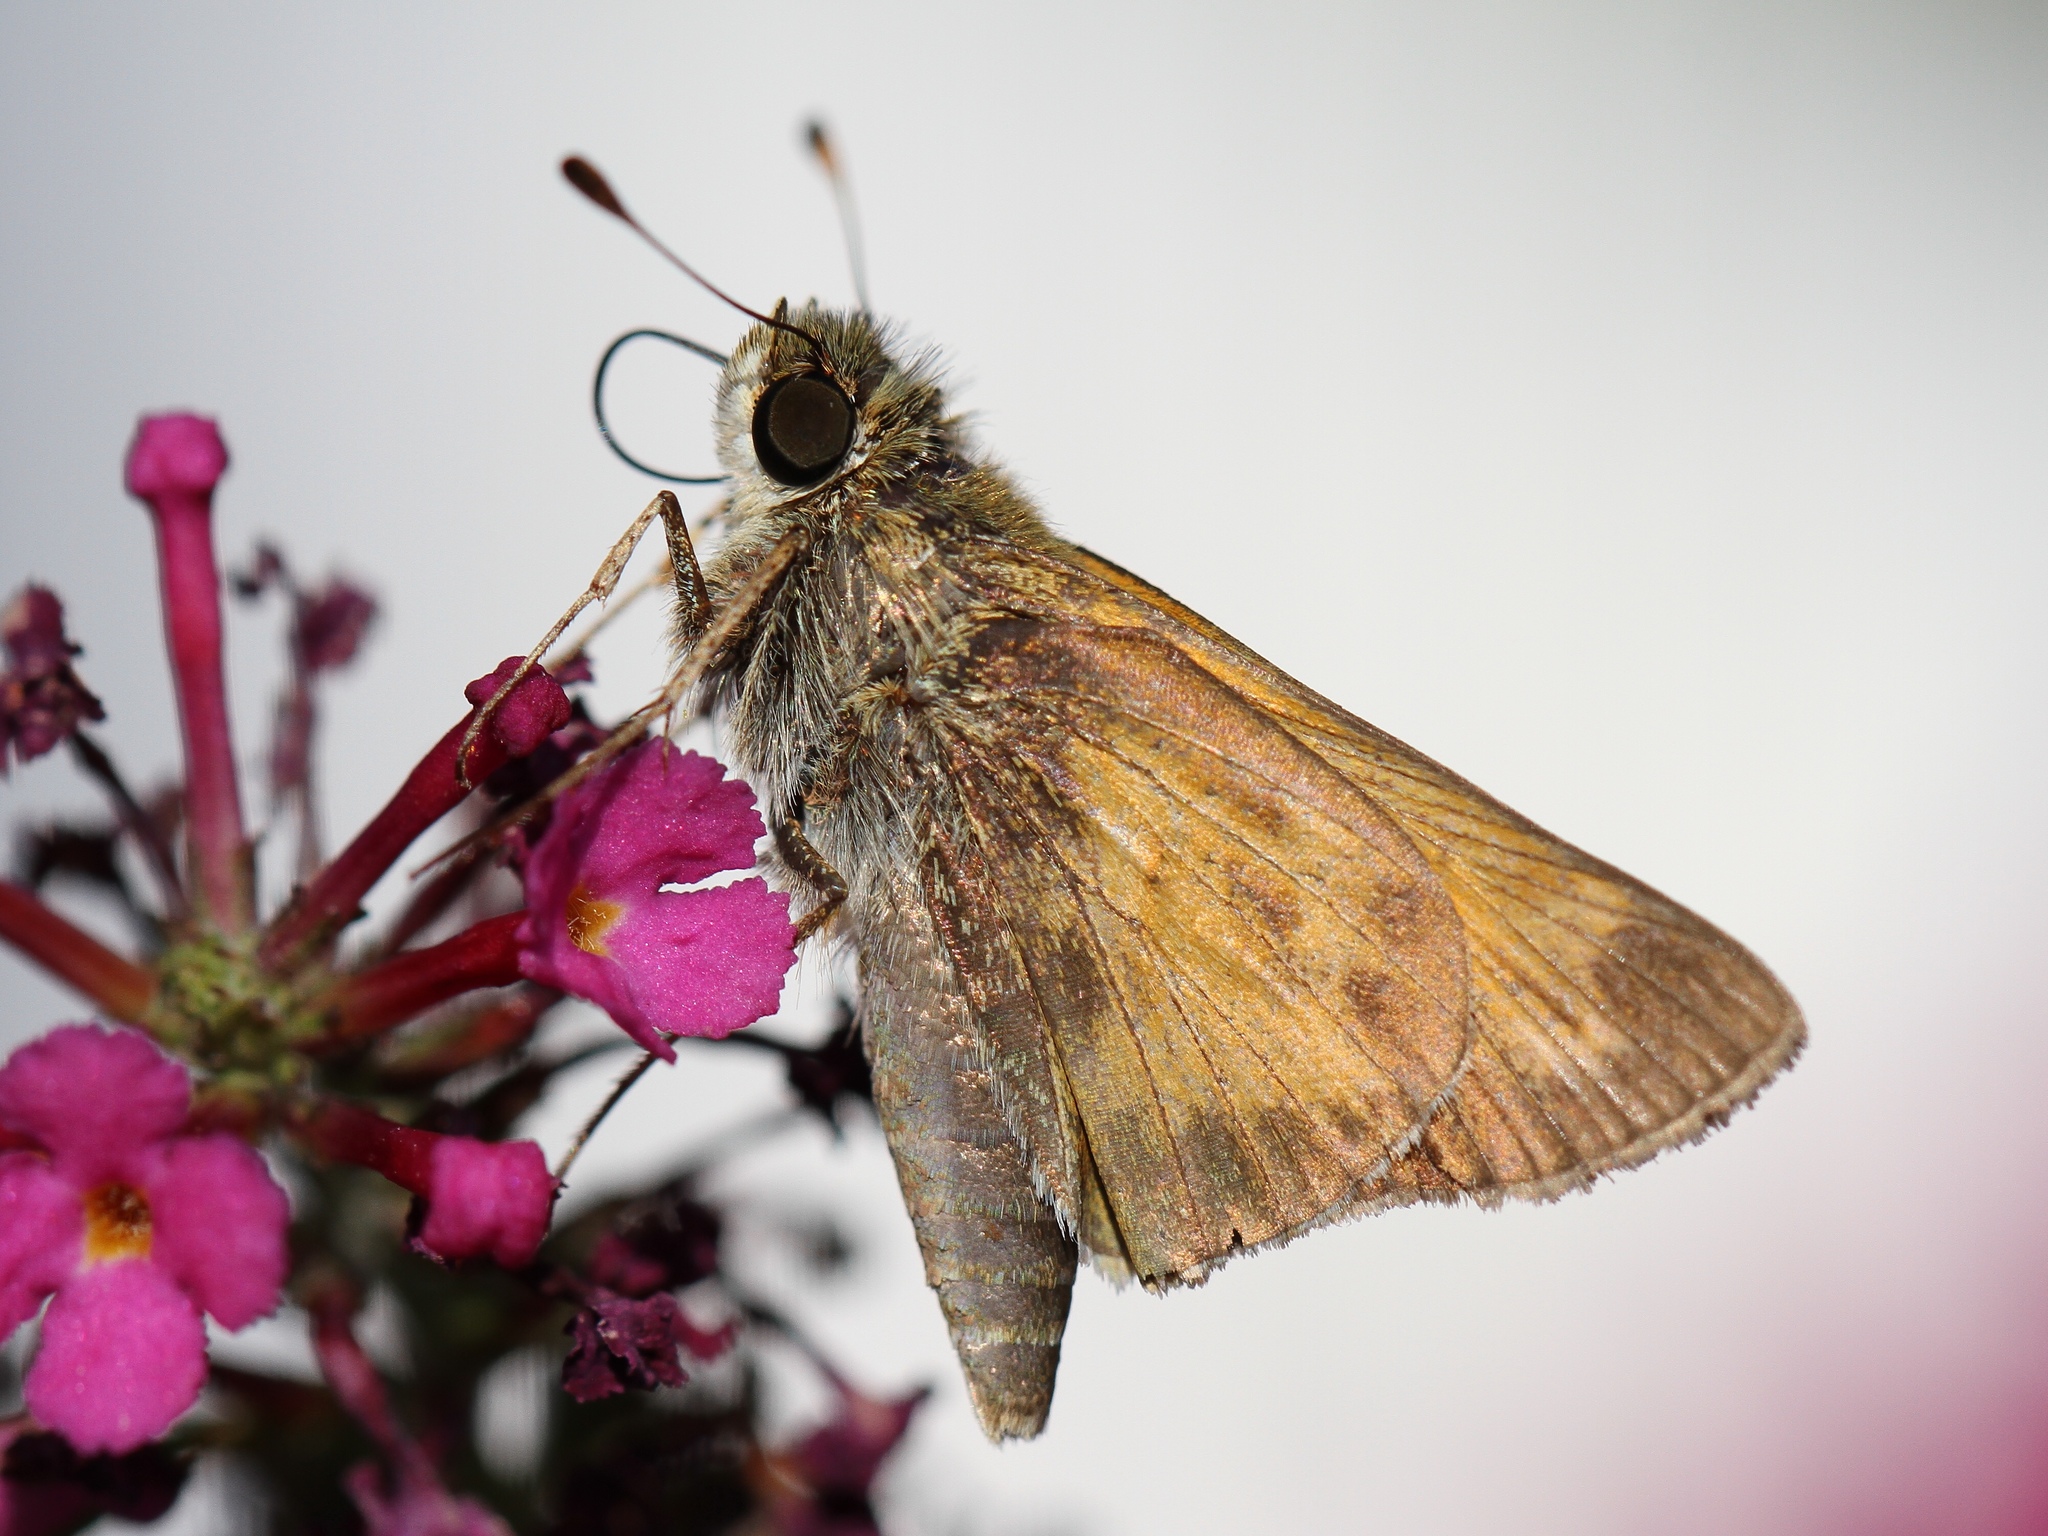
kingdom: Animalia
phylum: Arthropoda
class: Insecta
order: Lepidoptera
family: Hesperiidae
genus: Atalopedes
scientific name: Atalopedes
